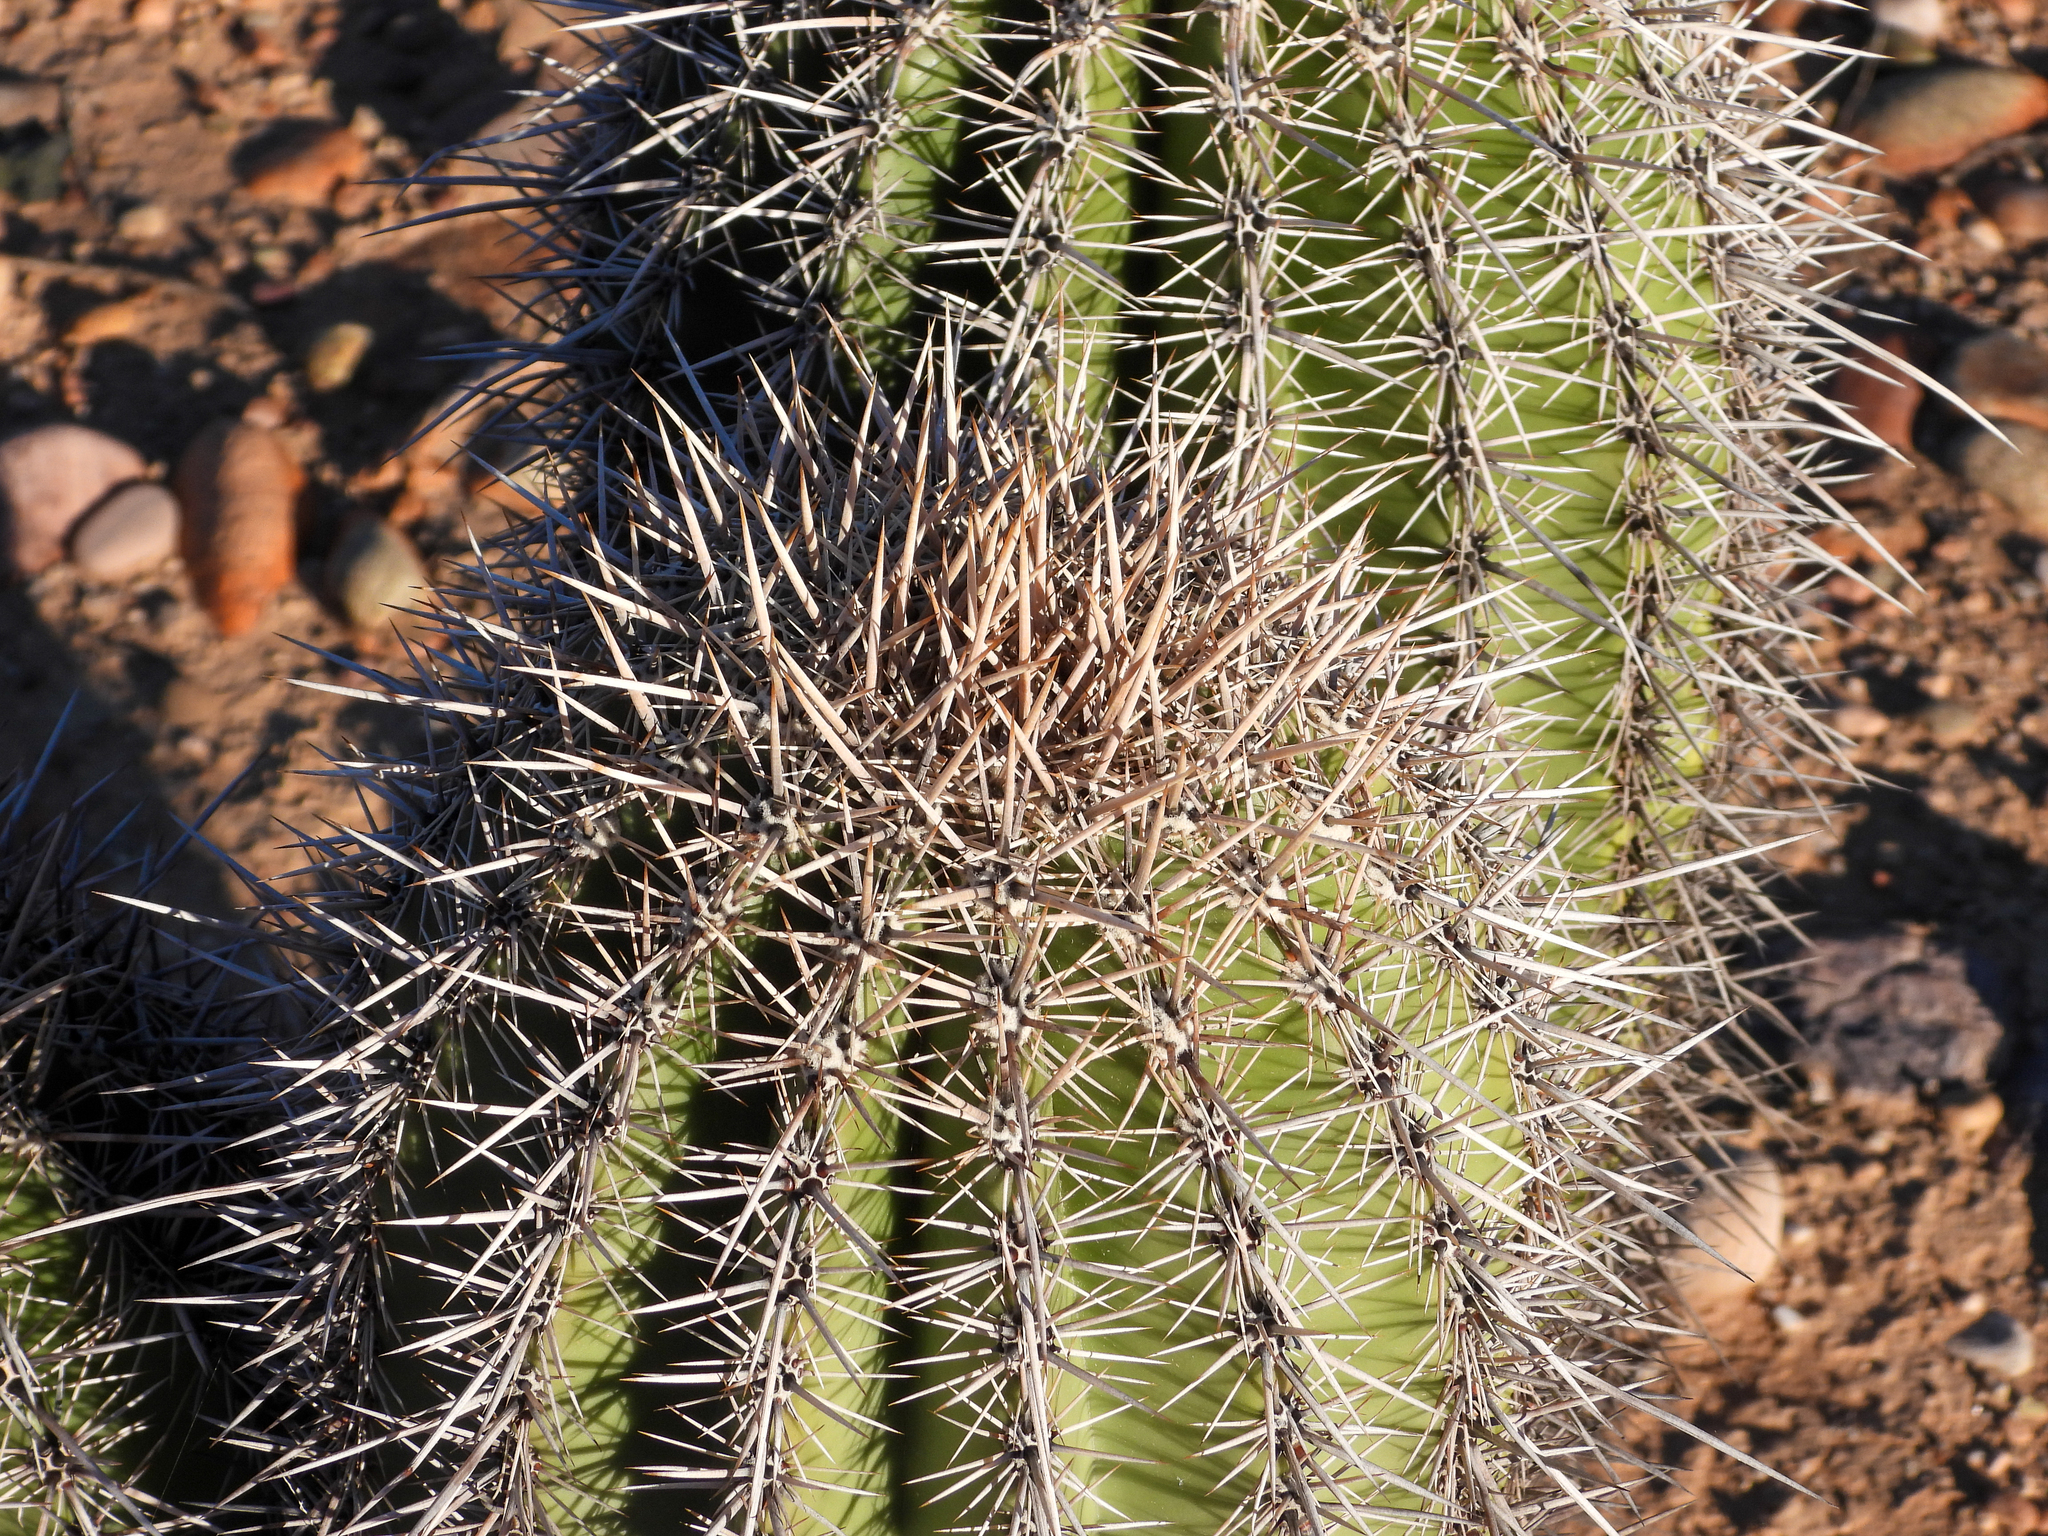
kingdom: Plantae
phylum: Tracheophyta
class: Magnoliopsida
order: Caryophyllales
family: Cactaceae
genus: Carnegiea
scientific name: Carnegiea gigantea
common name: Saguaro
